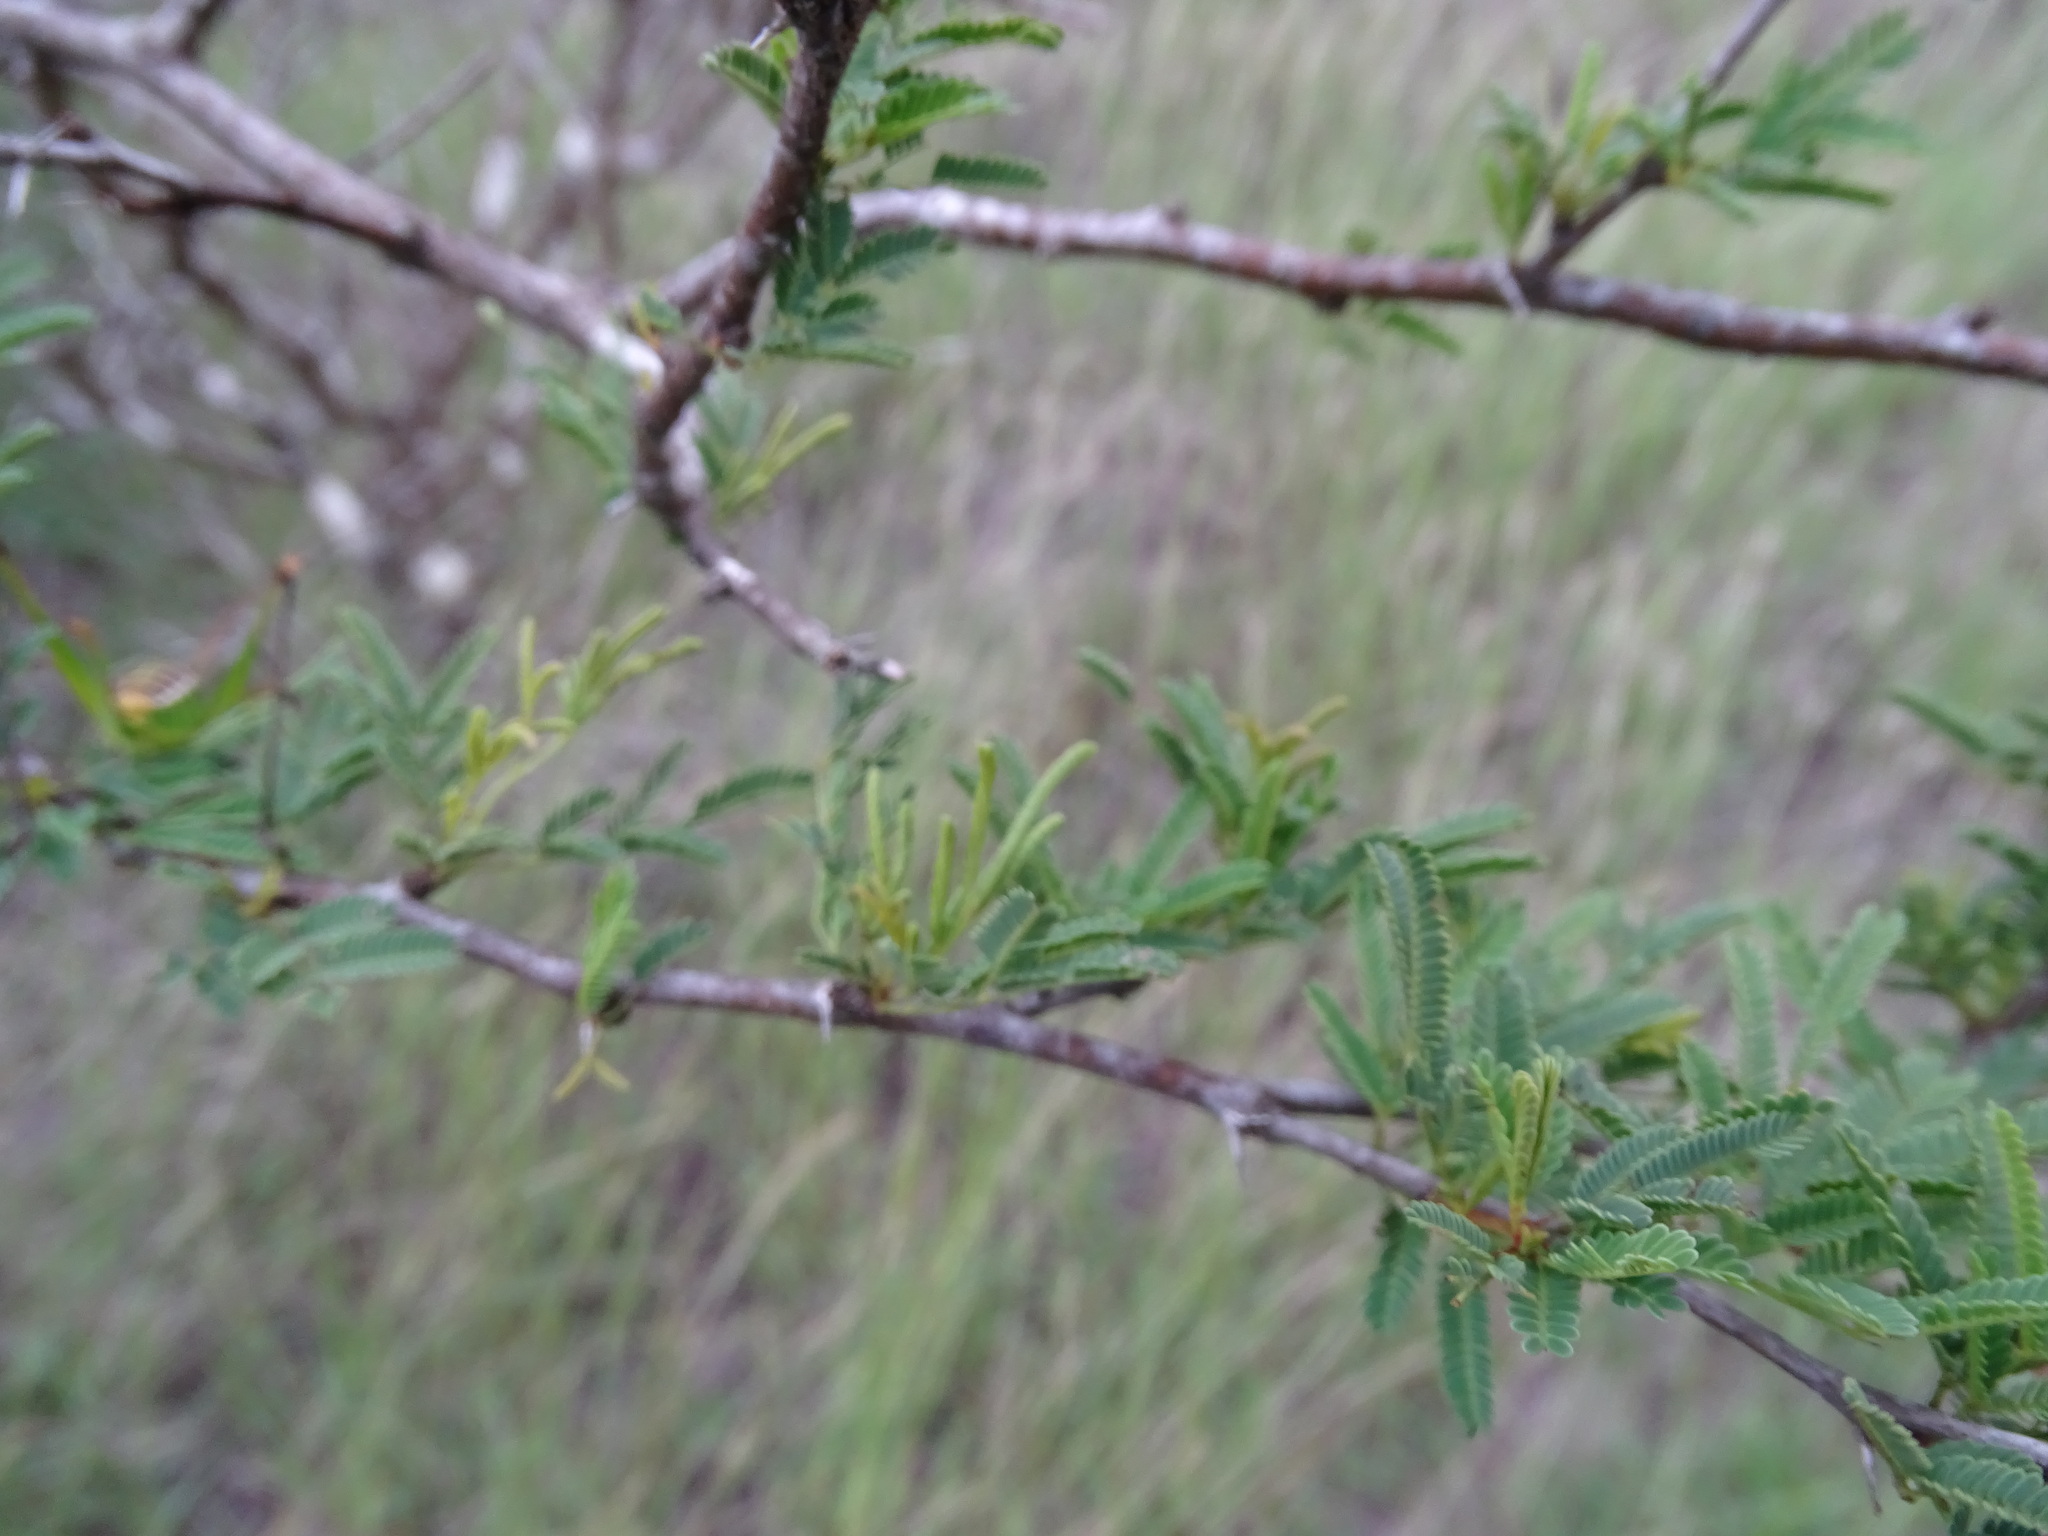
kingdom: Plantae
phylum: Tracheophyta
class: Magnoliopsida
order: Fabales
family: Fabaceae
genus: Vachellia
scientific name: Vachellia farnesiana
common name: Sweet acacia
